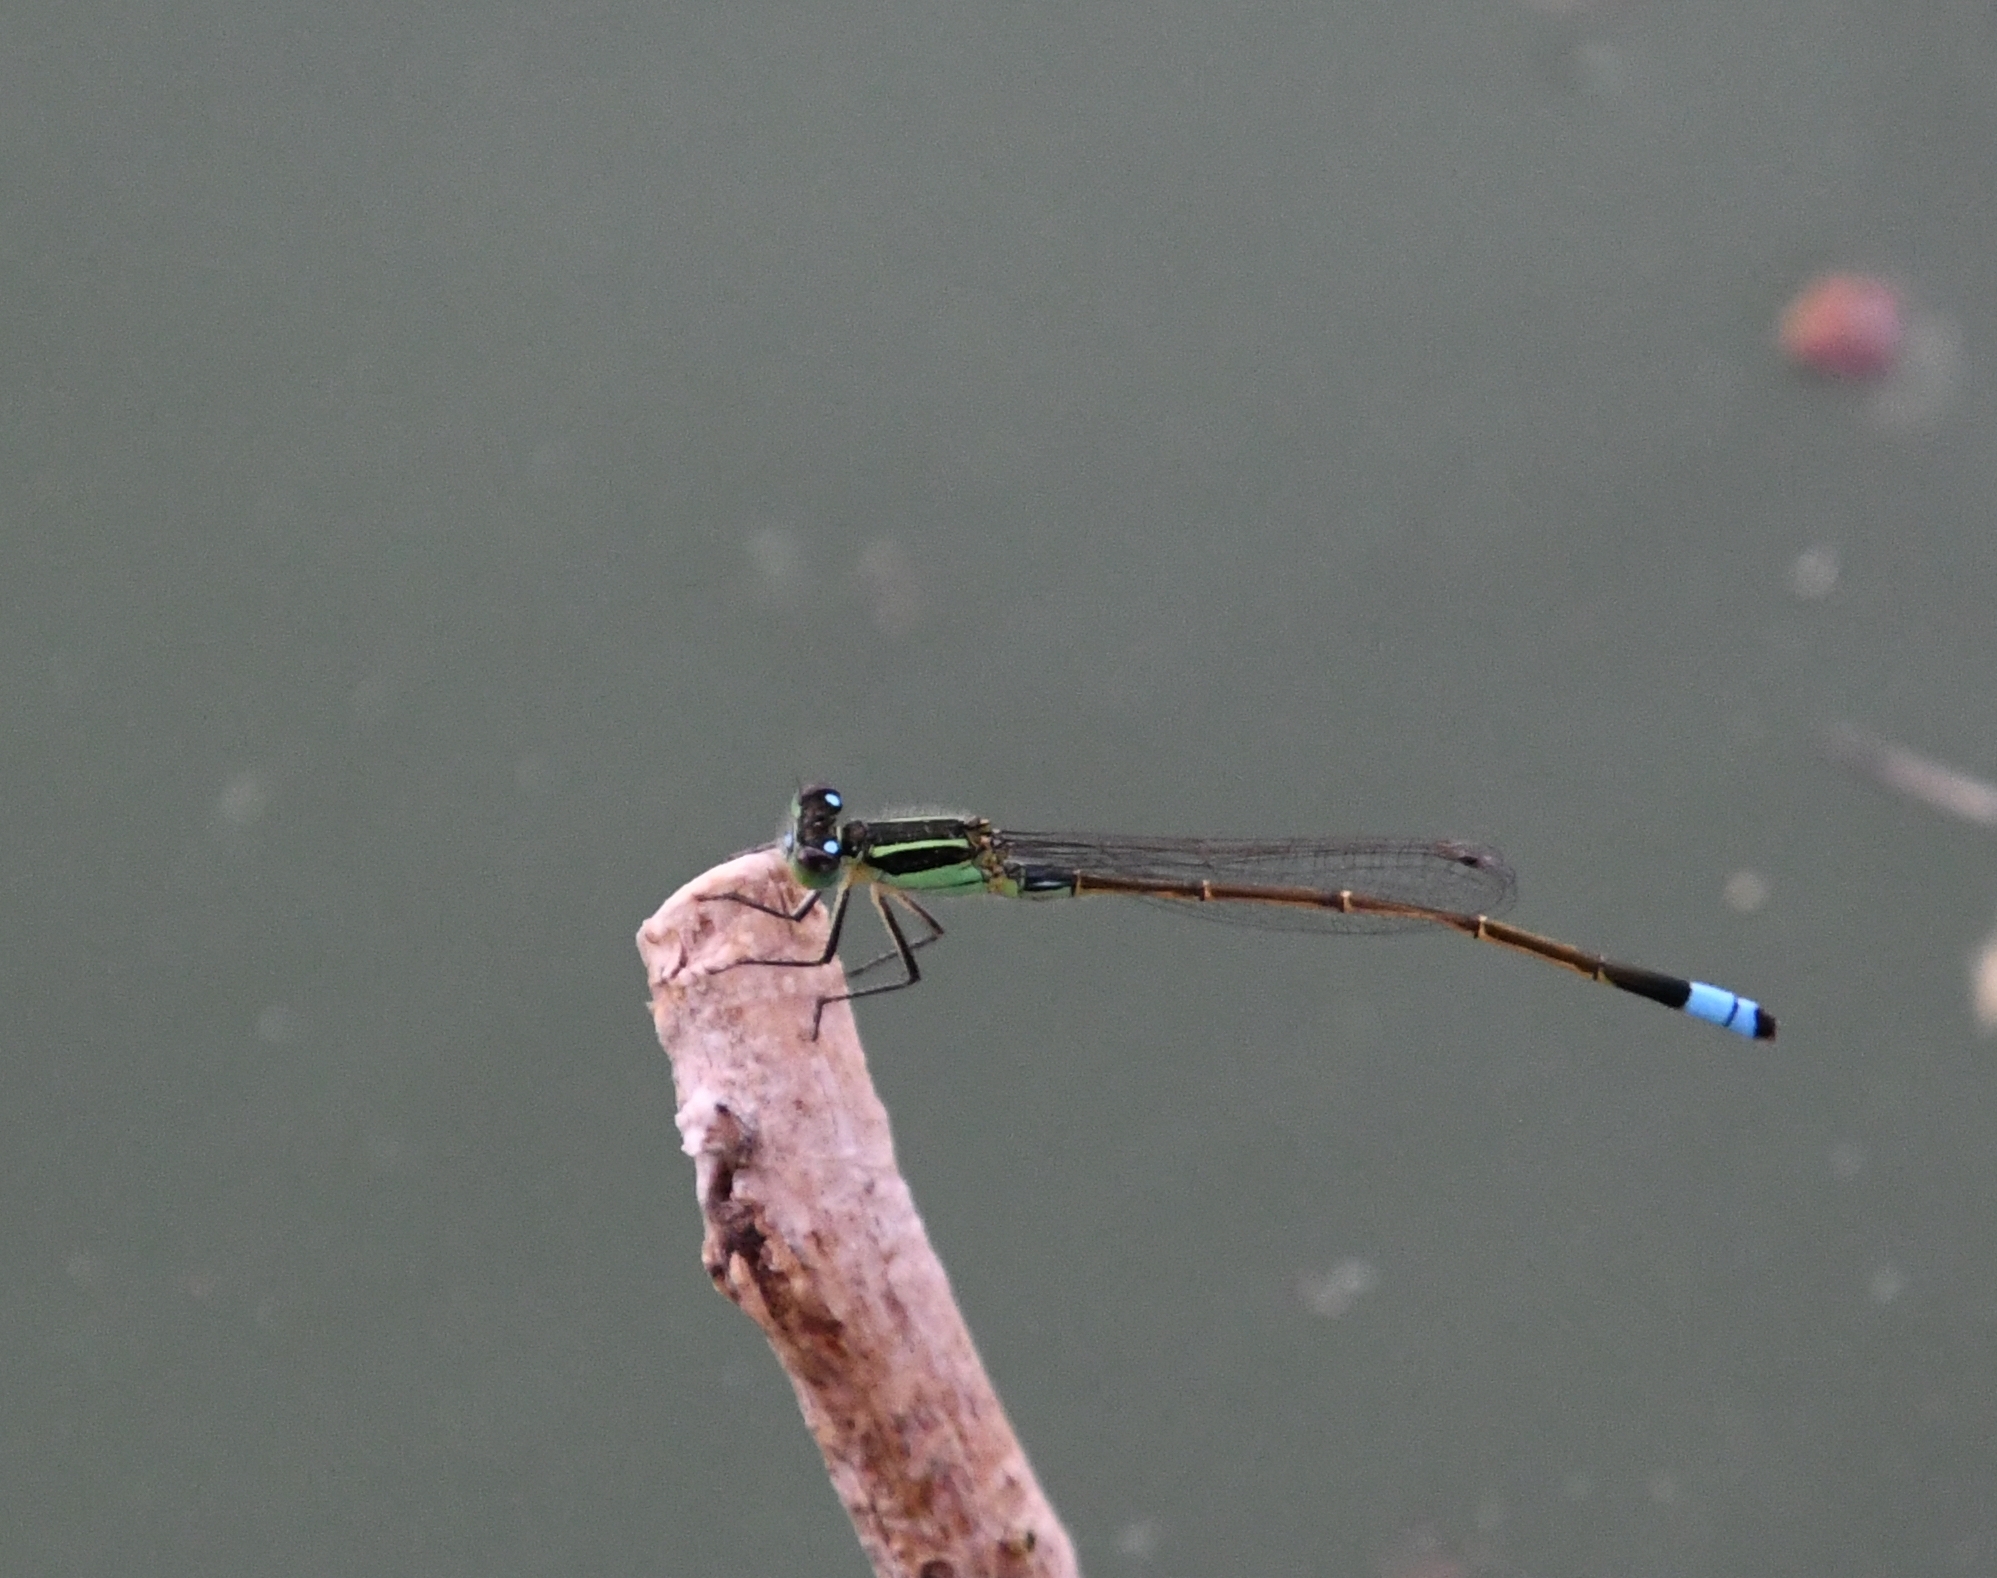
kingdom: Animalia
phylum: Arthropoda
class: Insecta
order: Odonata
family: Coenagrionidae
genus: Ischnura
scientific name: Ischnura ramburii
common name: Rambur's forktail
